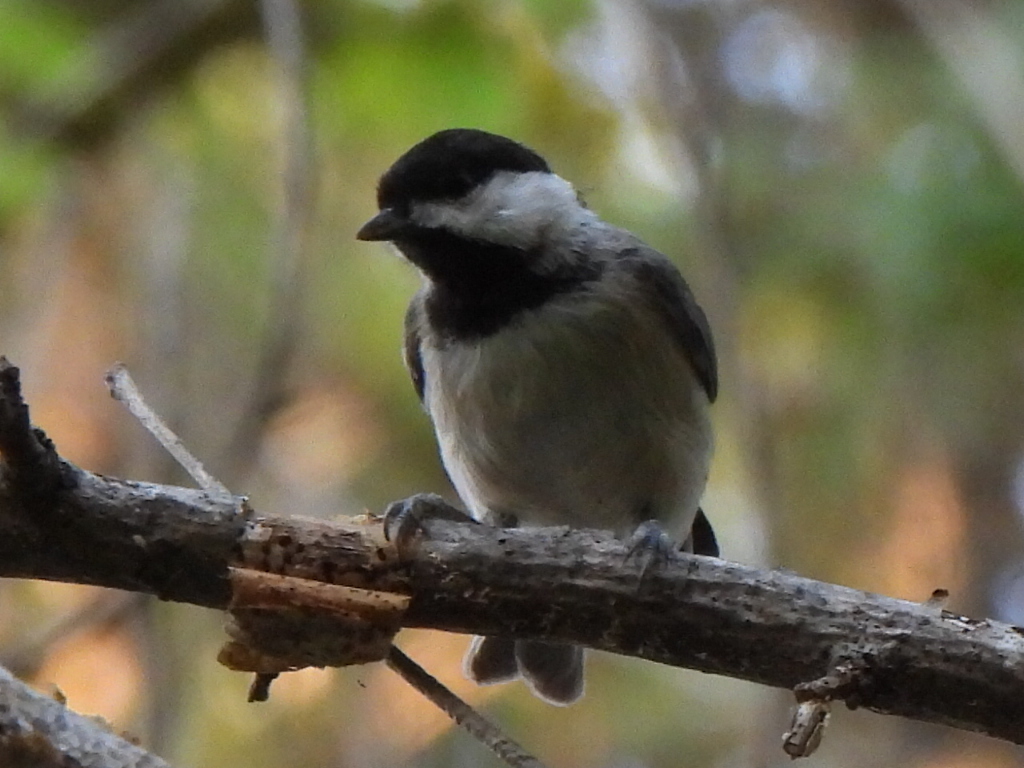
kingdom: Animalia
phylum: Chordata
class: Aves
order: Passeriformes
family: Paridae
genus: Poecile
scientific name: Poecile carolinensis
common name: Carolina chickadee
